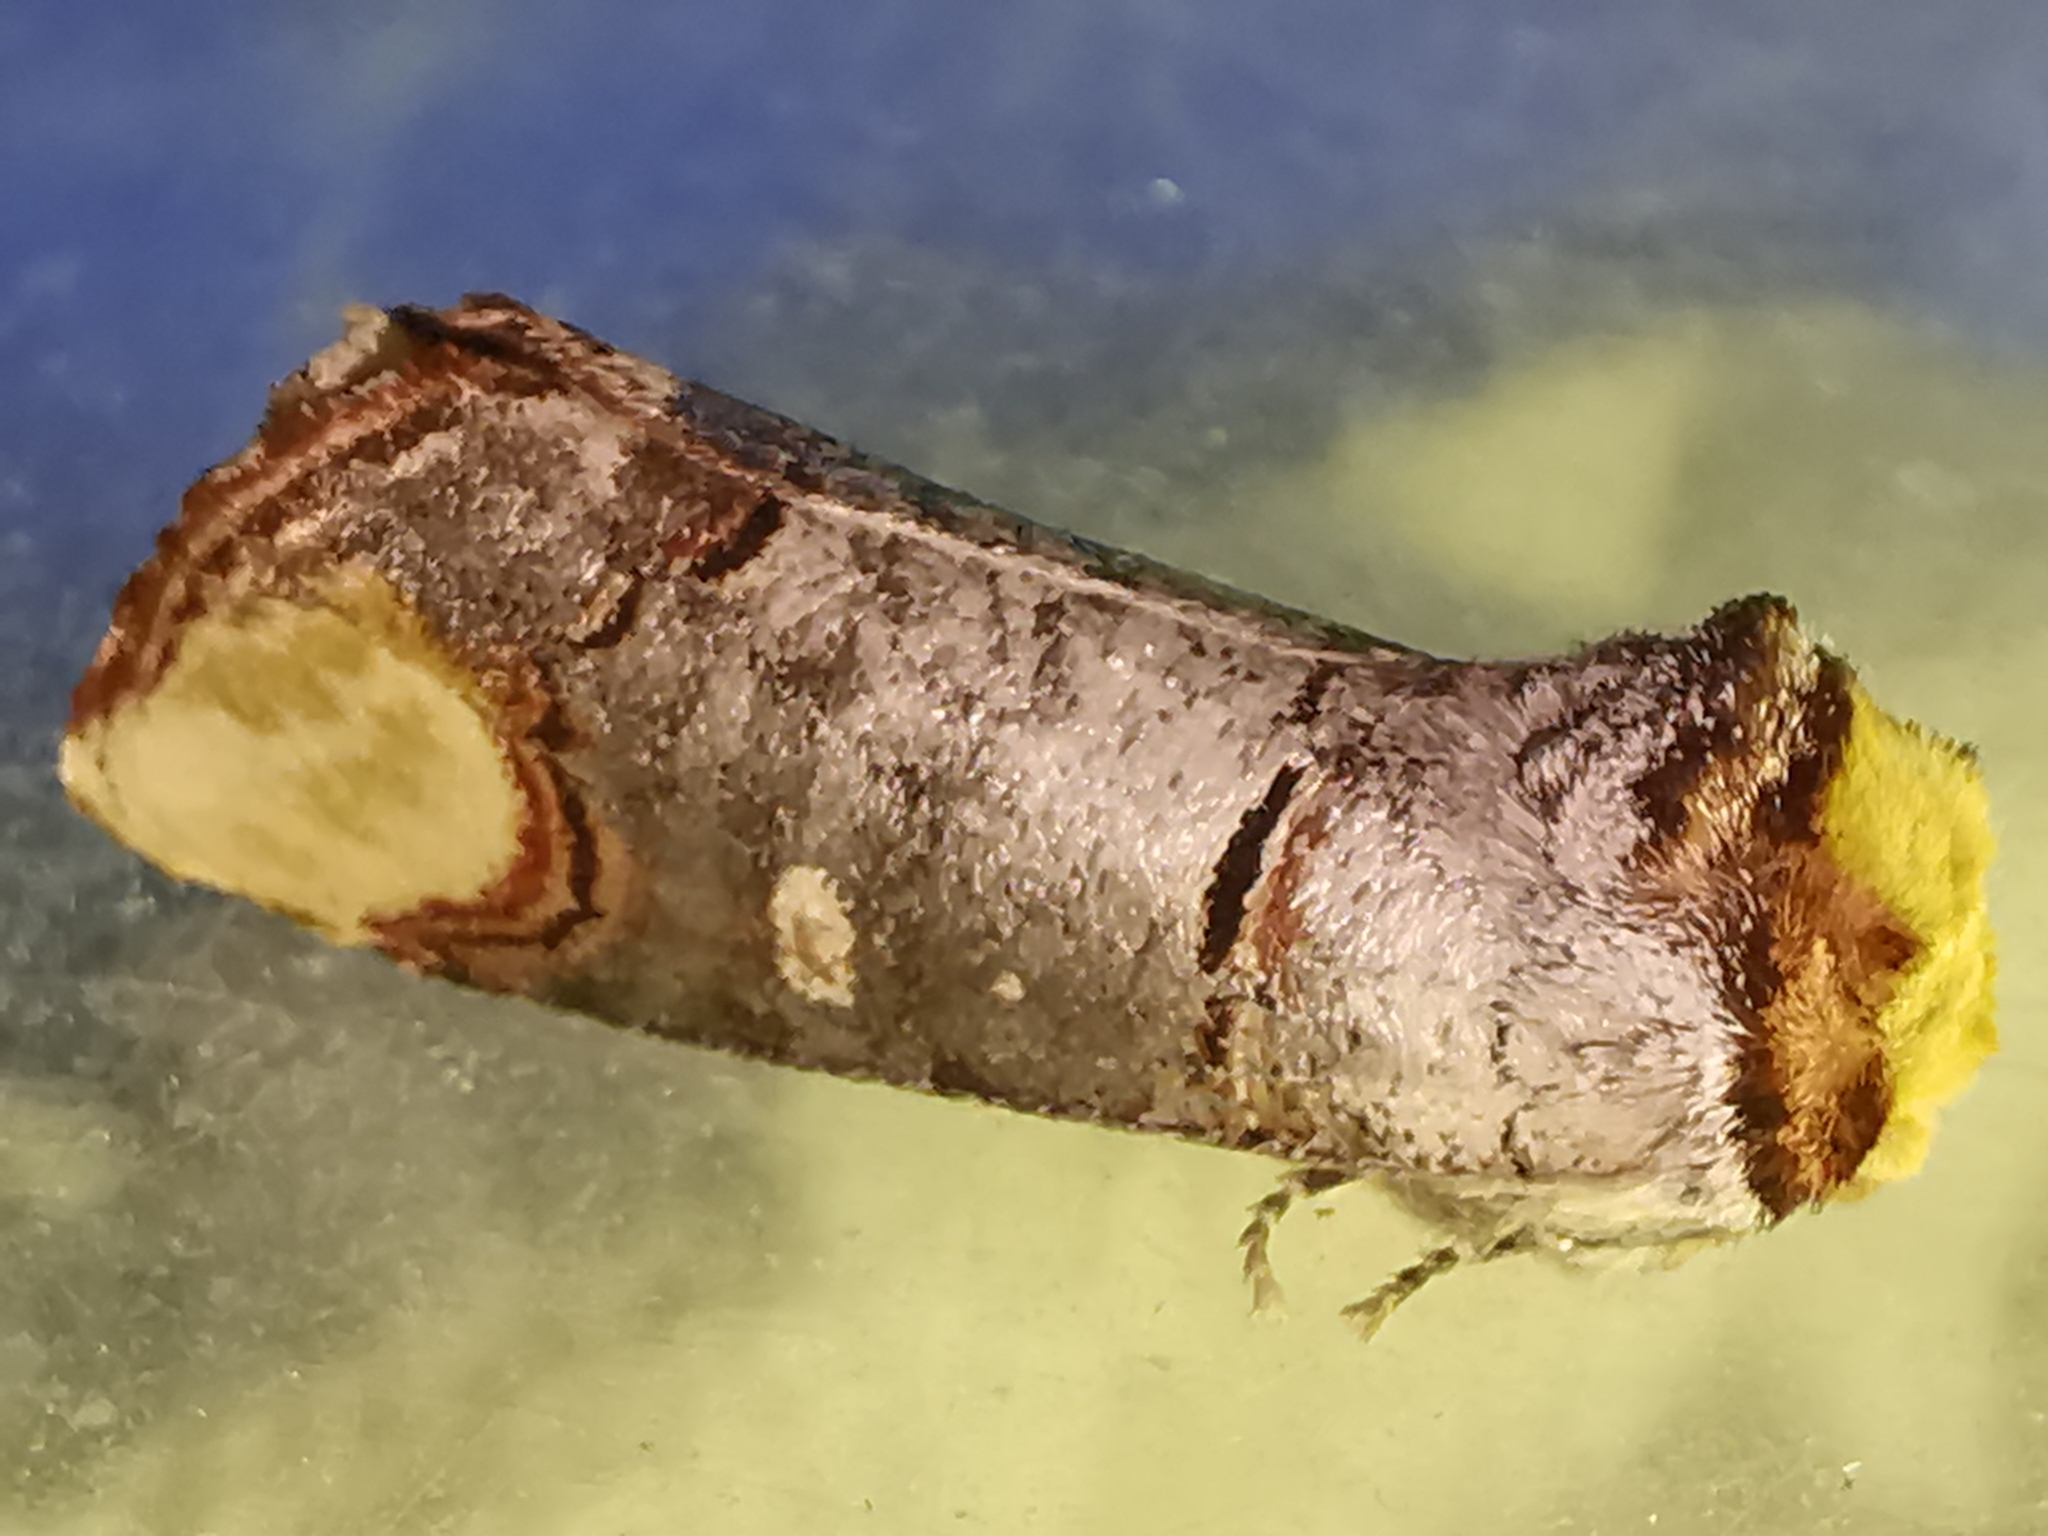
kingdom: Animalia
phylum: Arthropoda
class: Insecta
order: Lepidoptera
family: Notodontidae
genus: Phalera
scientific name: Phalera bucephala
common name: Buff-tip
